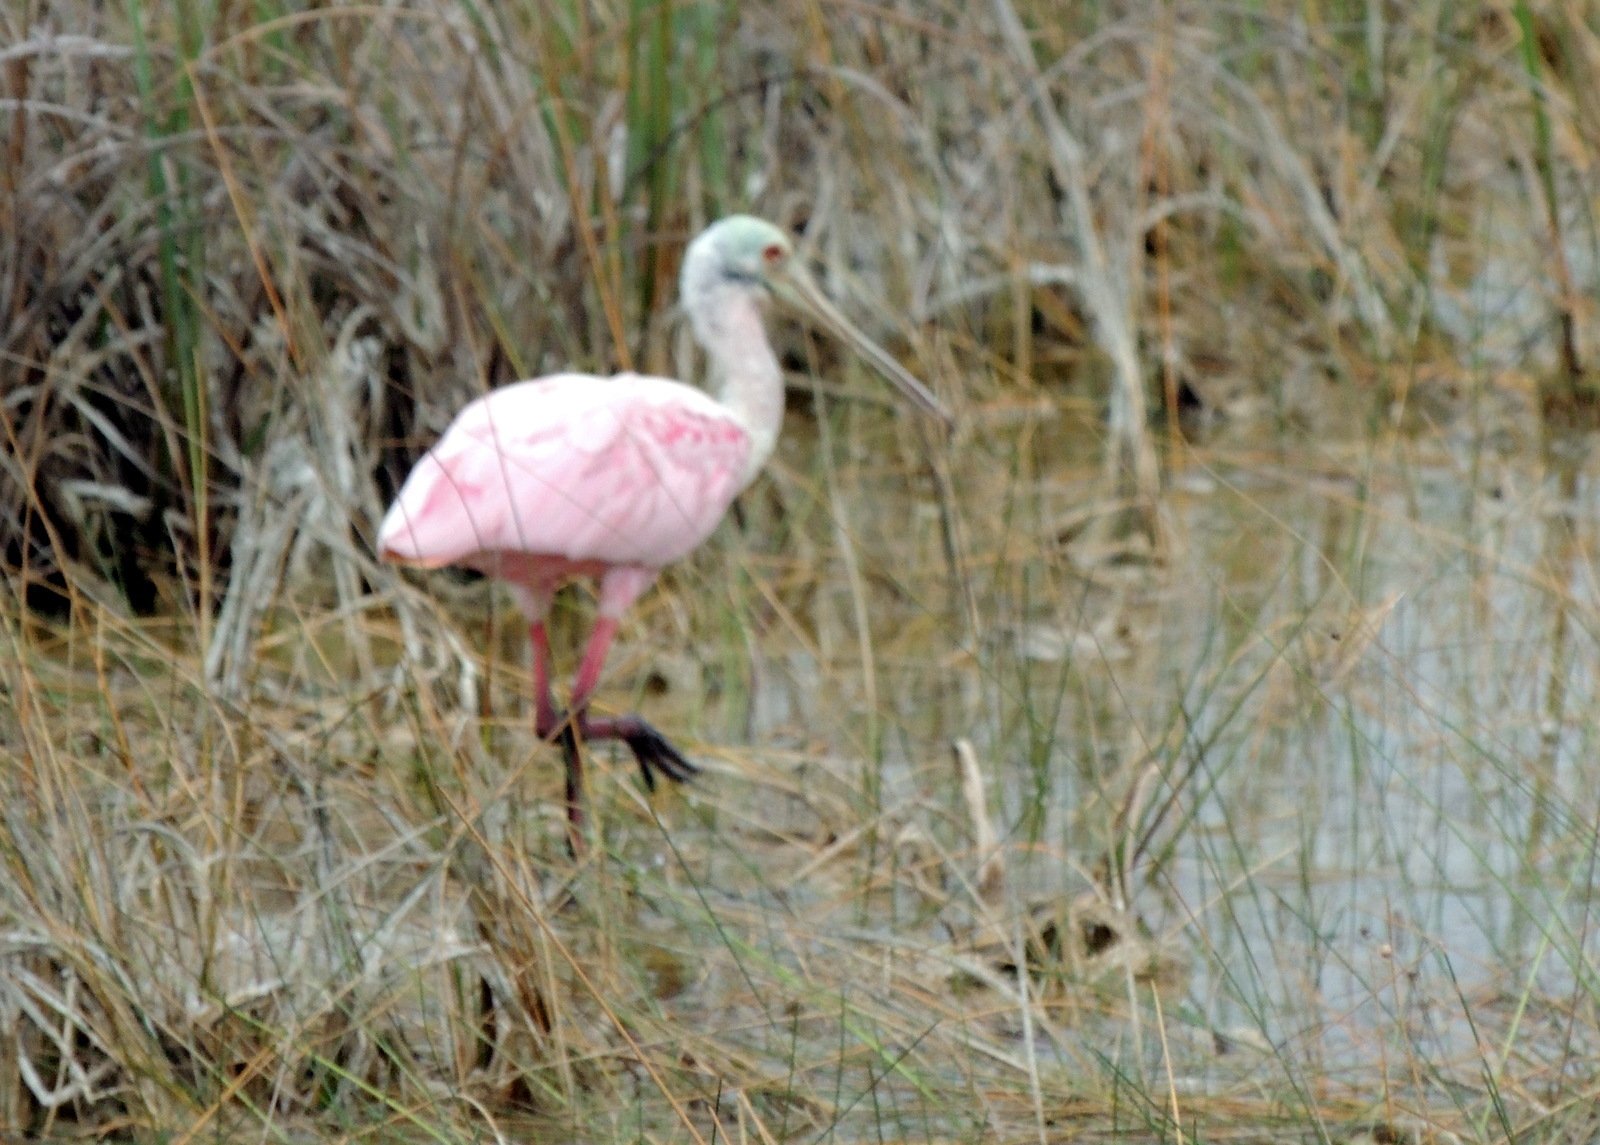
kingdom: Animalia
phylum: Chordata
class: Aves
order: Pelecaniformes
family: Threskiornithidae
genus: Platalea
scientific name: Platalea ajaja
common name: Roseate spoonbill
